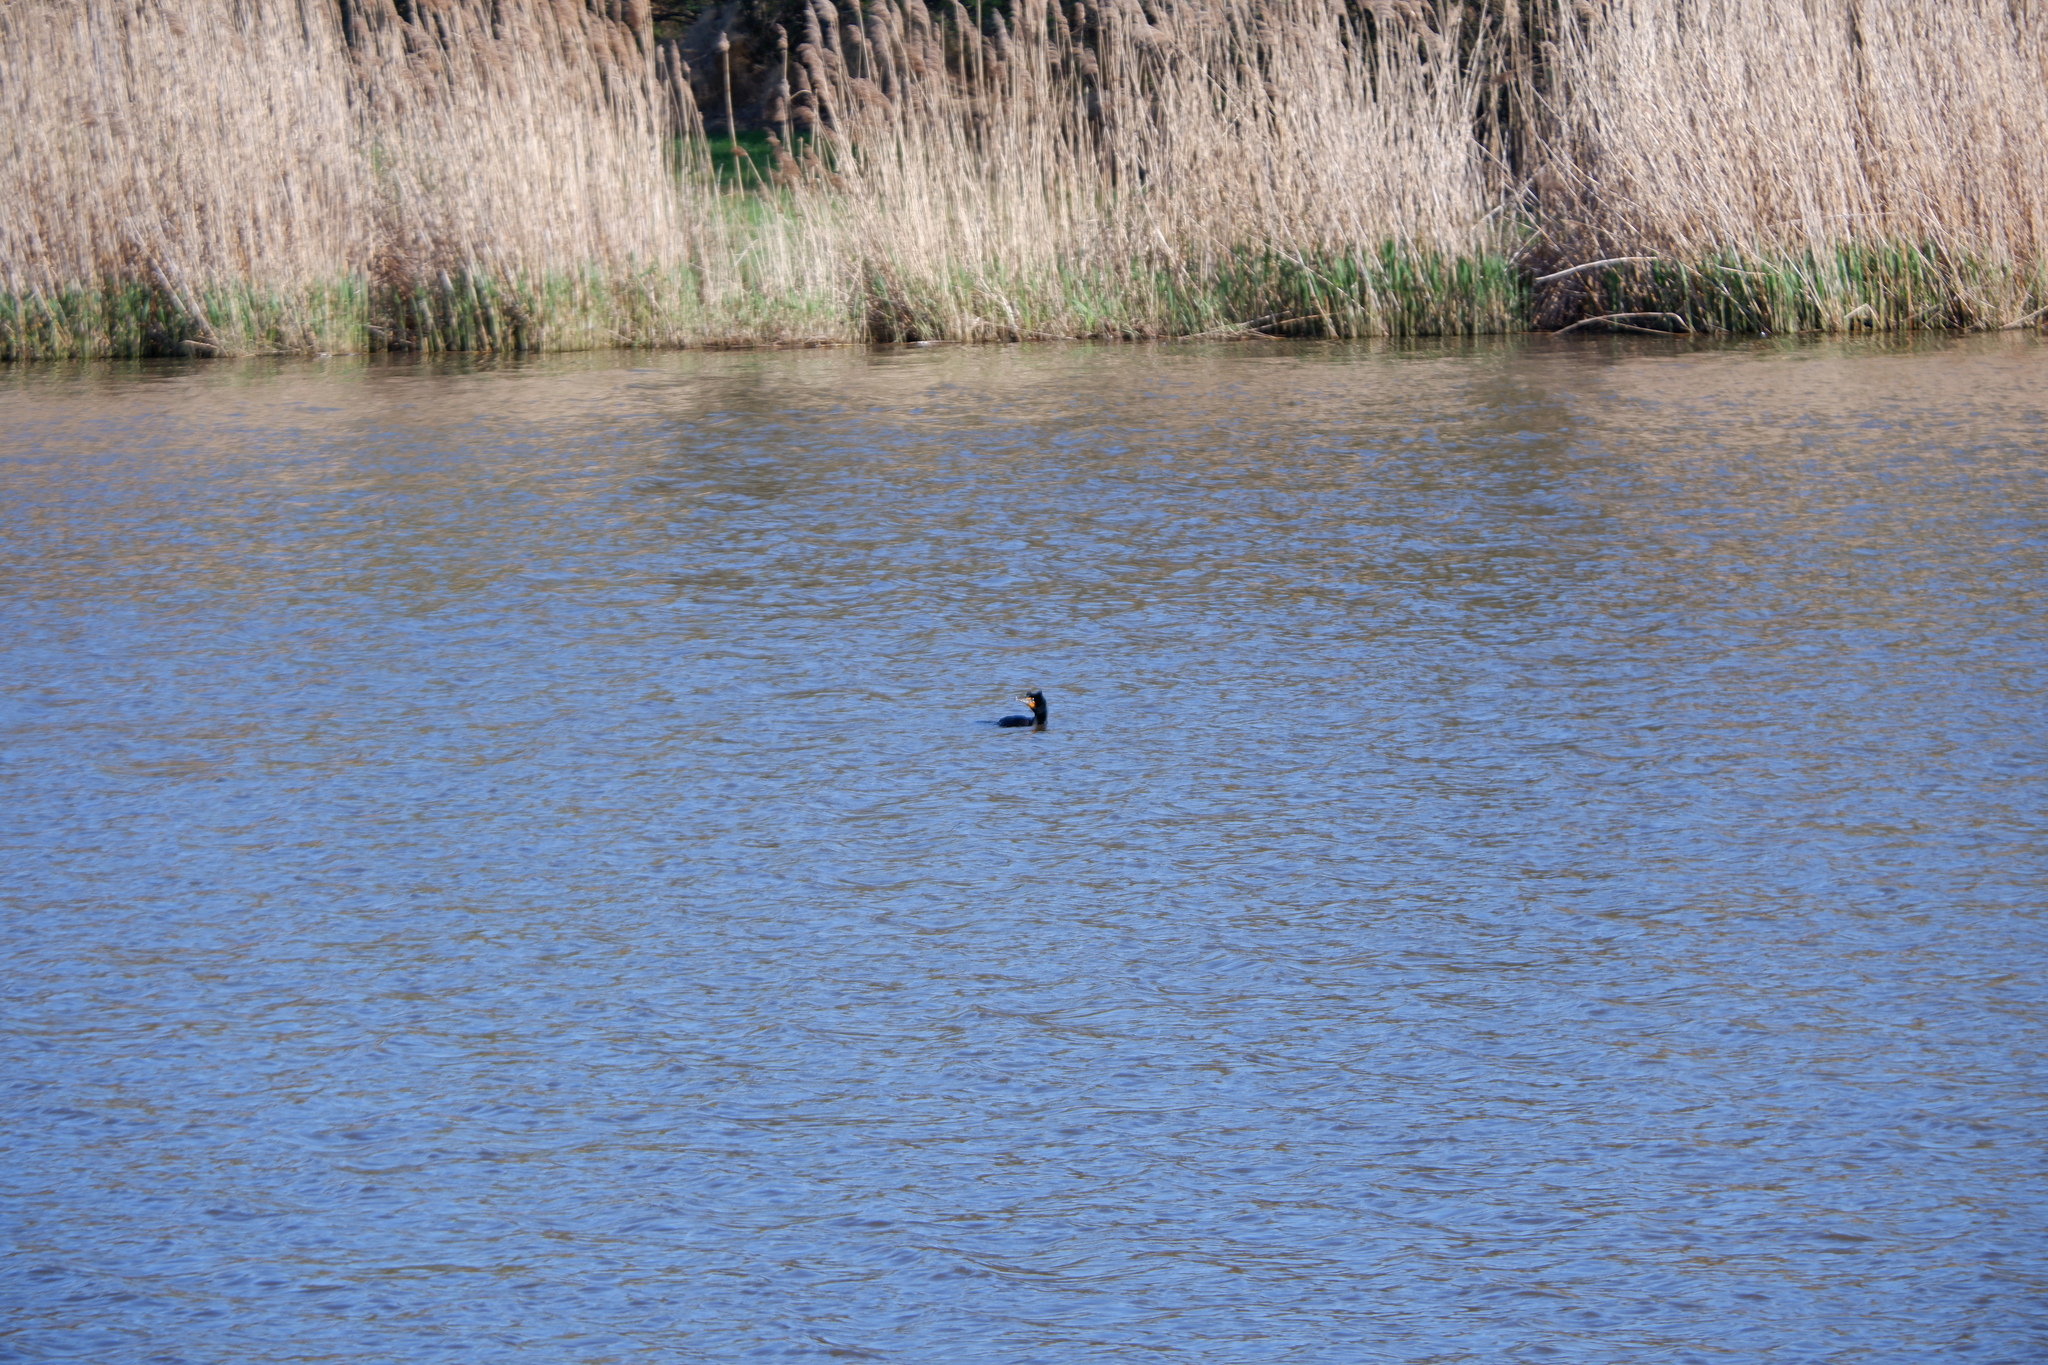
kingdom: Animalia
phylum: Chordata
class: Aves
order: Suliformes
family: Phalacrocoracidae
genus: Phalacrocorax
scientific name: Phalacrocorax auritus
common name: Double-crested cormorant
